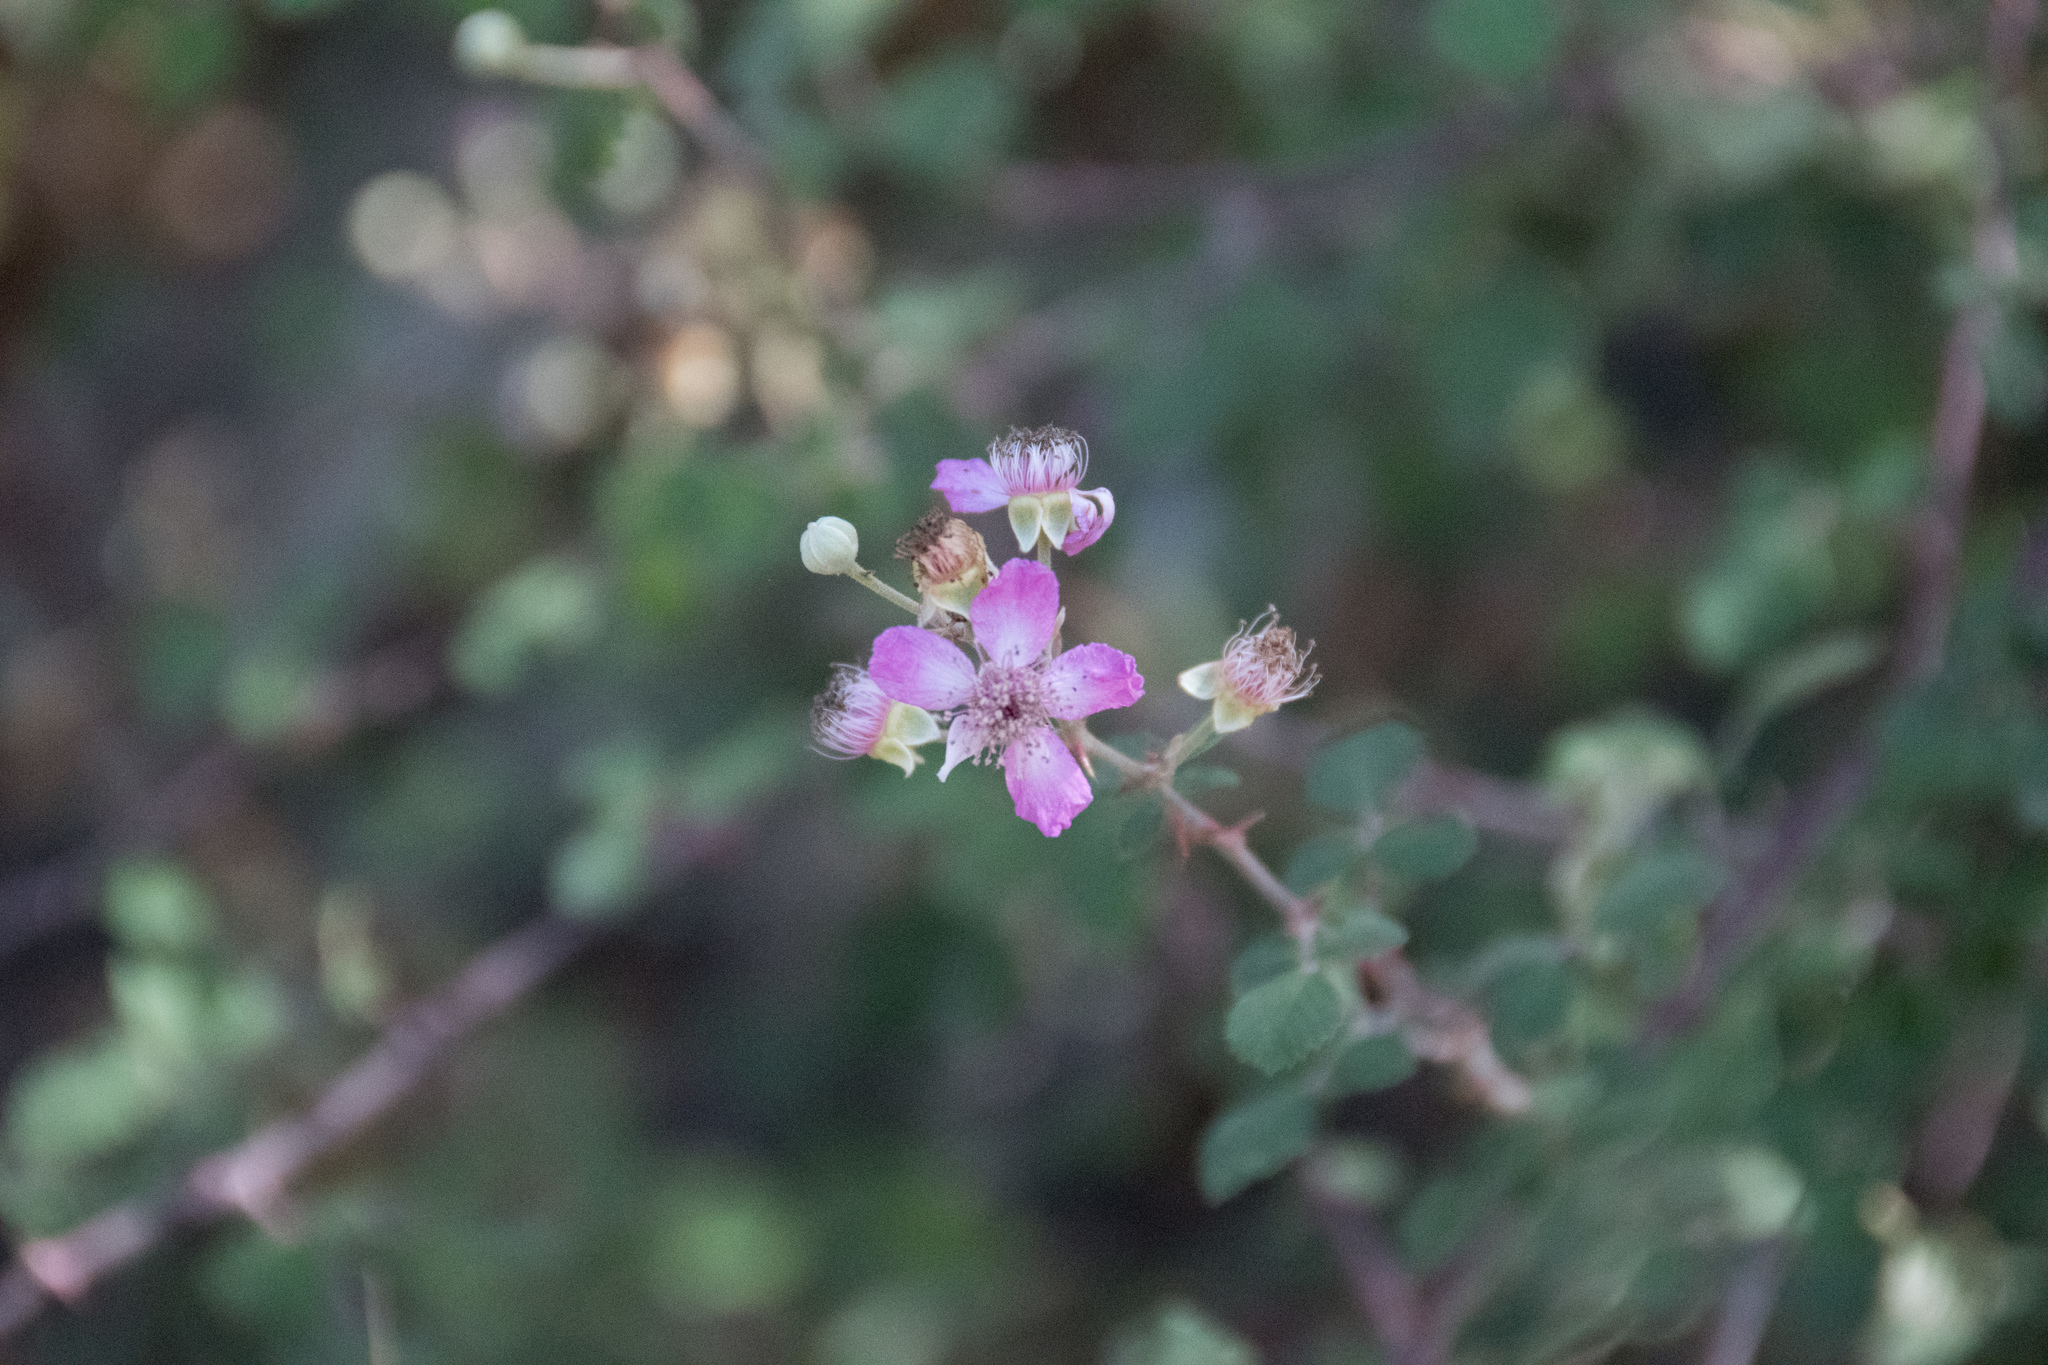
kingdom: Plantae
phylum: Tracheophyta
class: Magnoliopsida
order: Rosales
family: Rosaceae
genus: Rubus
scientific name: Rubus sanctus
